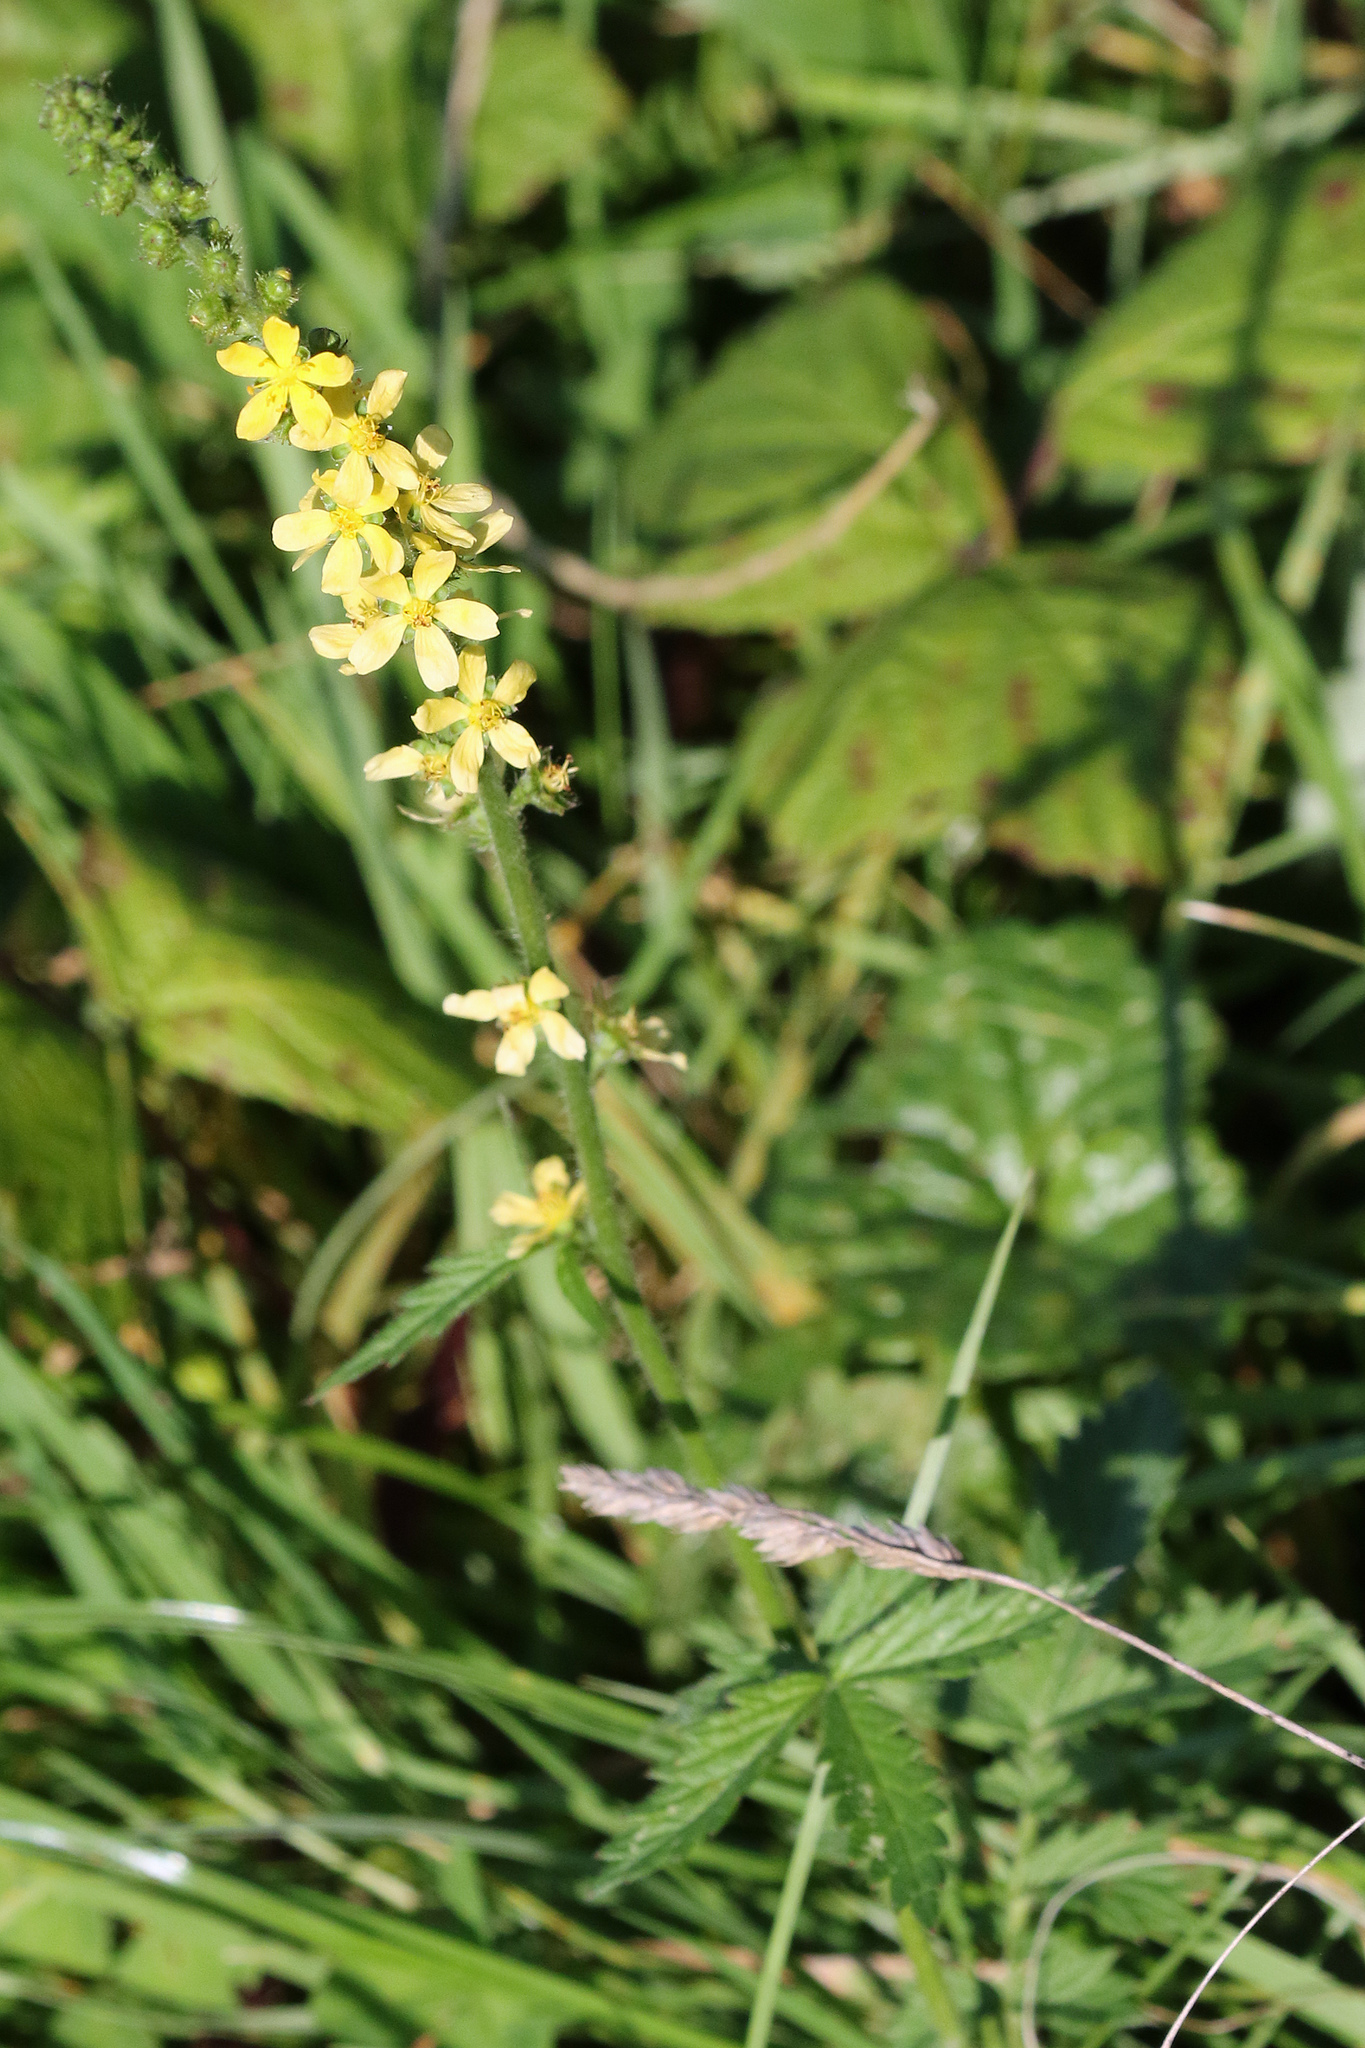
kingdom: Plantae
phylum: Tracheophyta
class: Magnoliopsida
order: Rosales
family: Rosaceae
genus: Agrimonia
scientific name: Agrimonia eupatoria
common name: Agrimony
